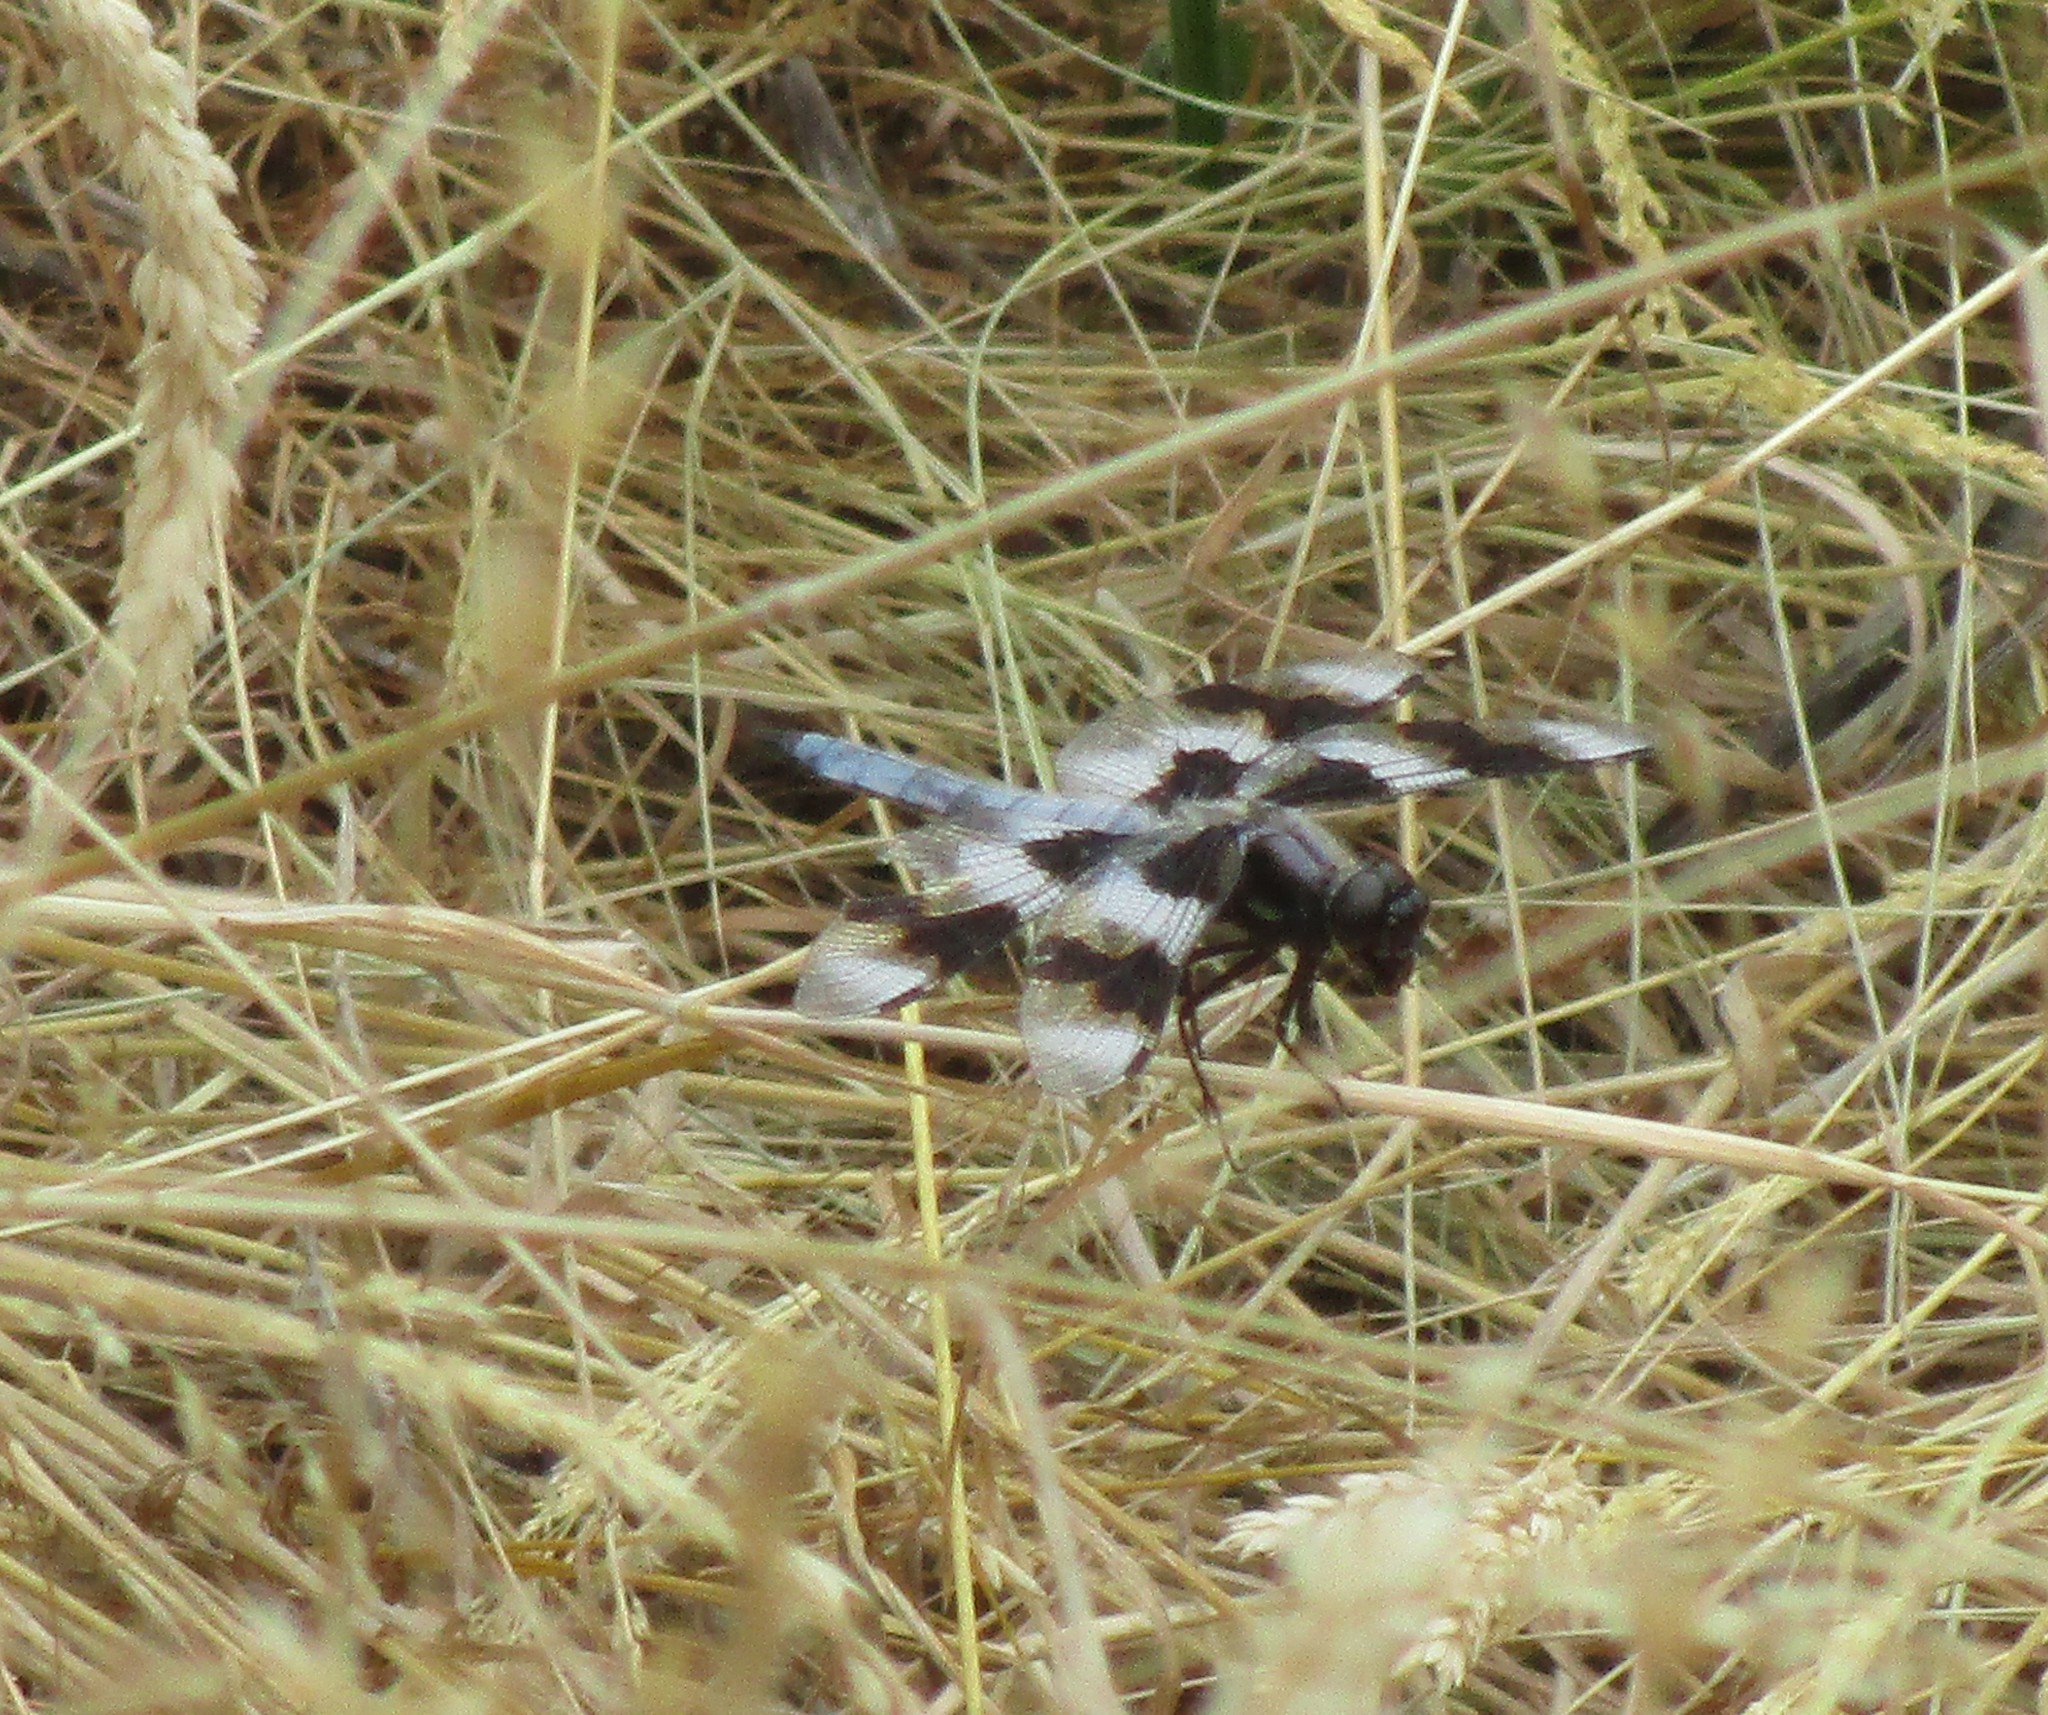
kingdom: Animalia
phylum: Arthropoda
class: Insecta
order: Odonata
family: Libellulidae
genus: Libellula
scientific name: Libellula forensis
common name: Eight-spotted skimmer
